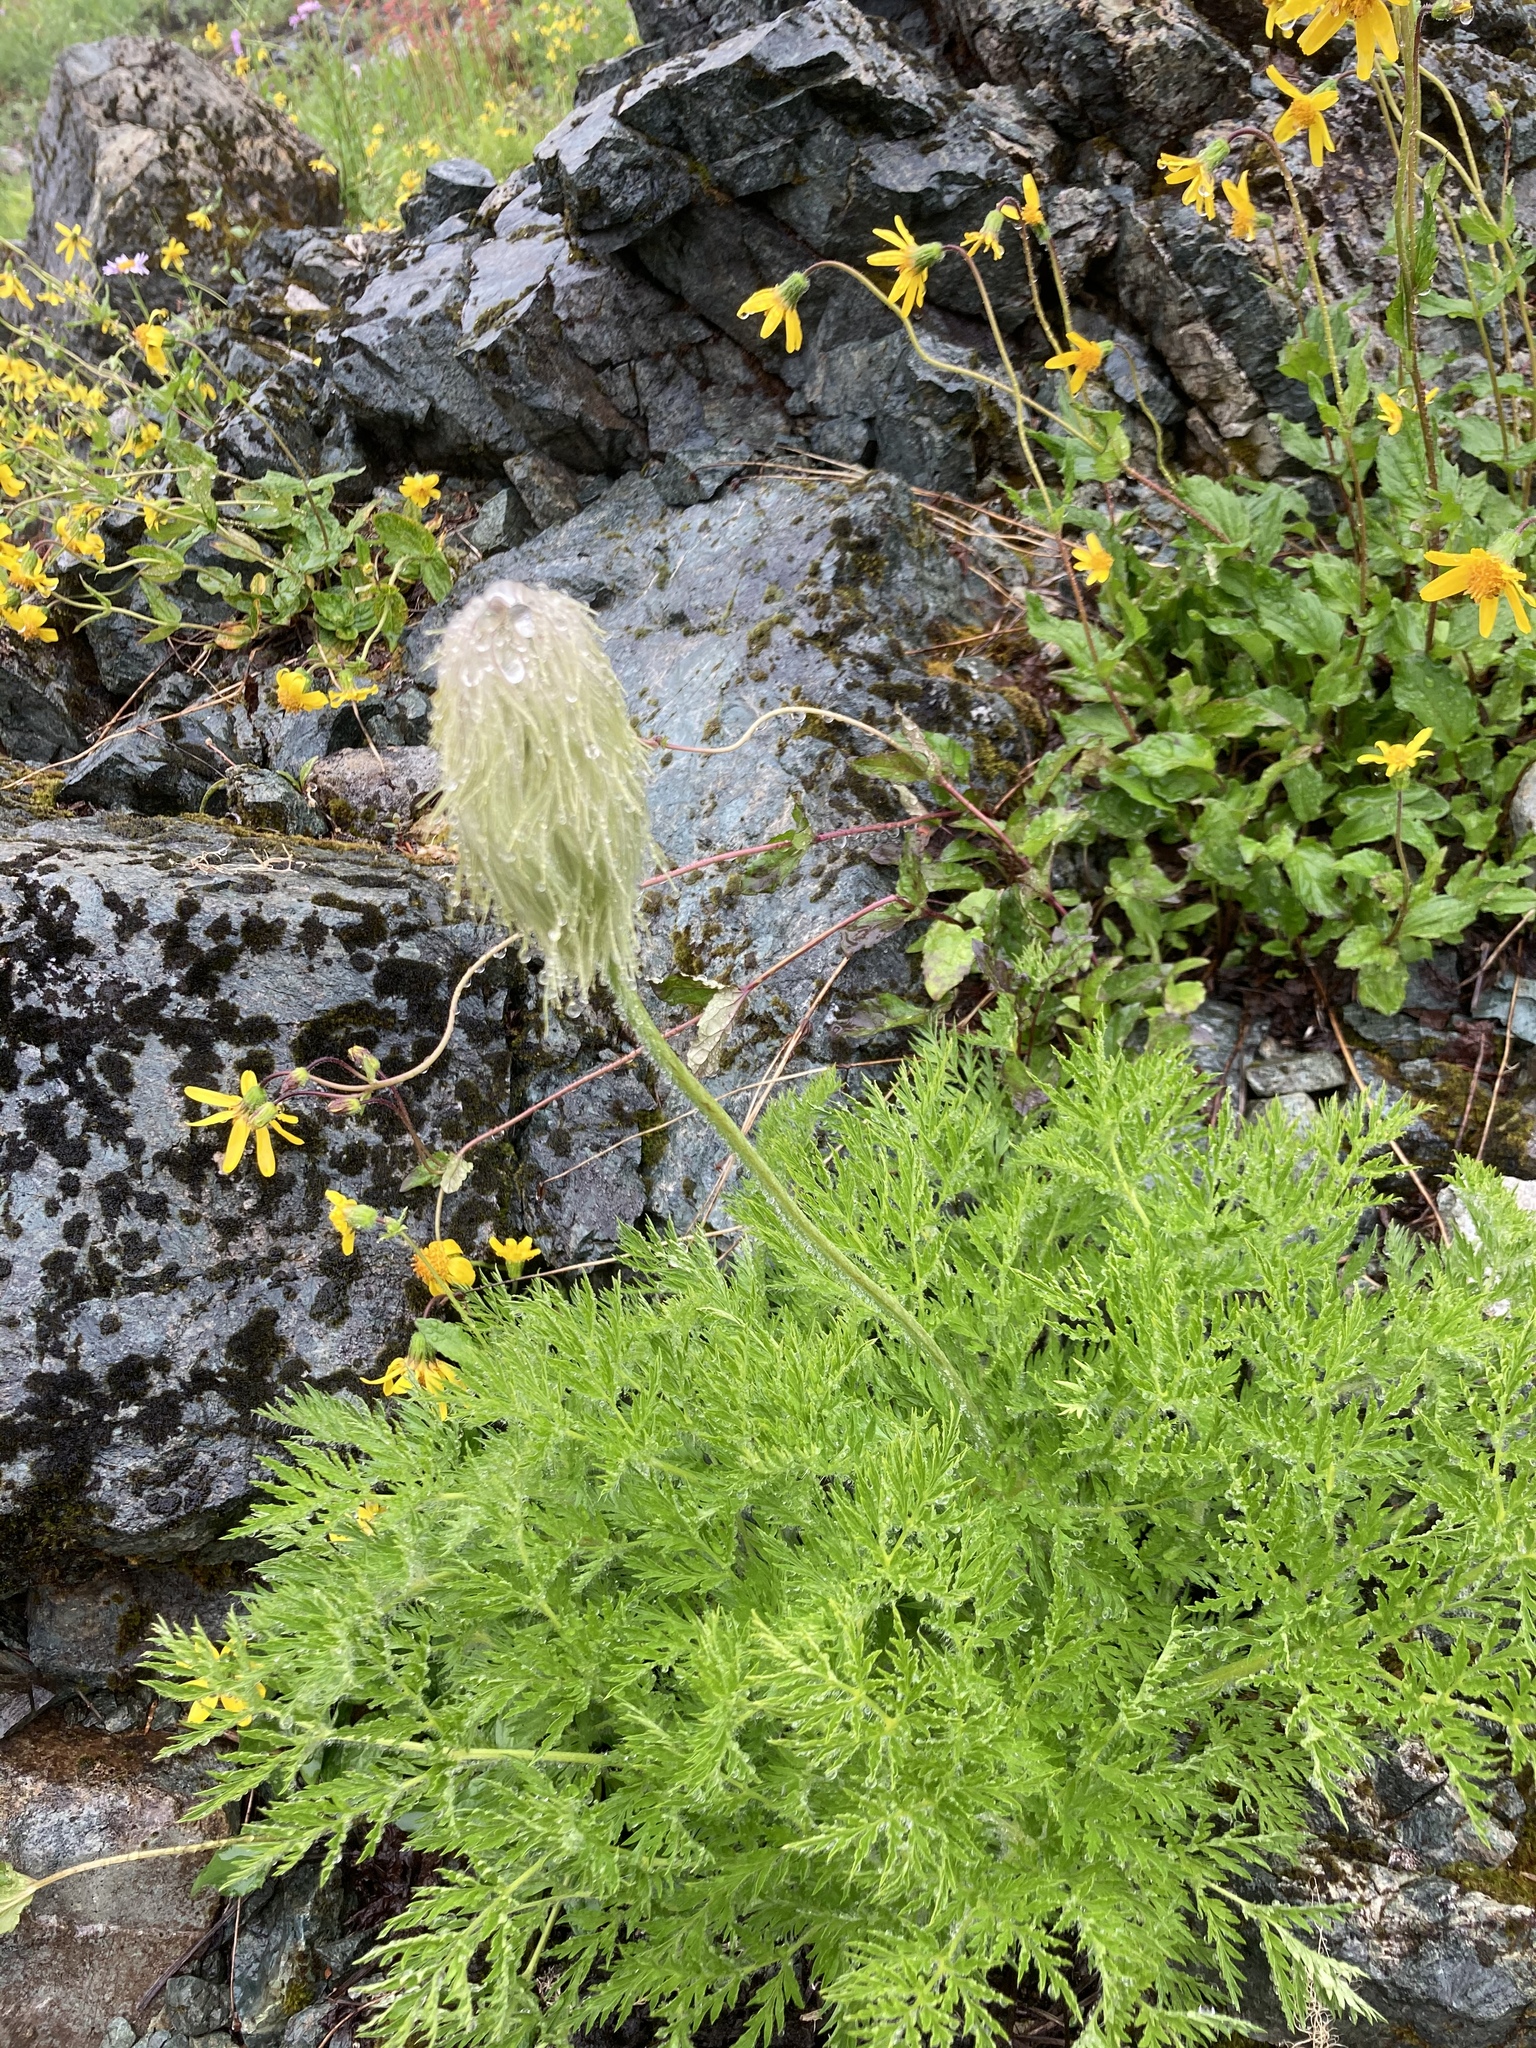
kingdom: Plantae
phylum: Tracheophyta
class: Magnoliopsida
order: Ranunculales
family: Ranunculaceae
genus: Pulsatilla
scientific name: Pulsatilla occidentalis
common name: Mountain pasqueflower
